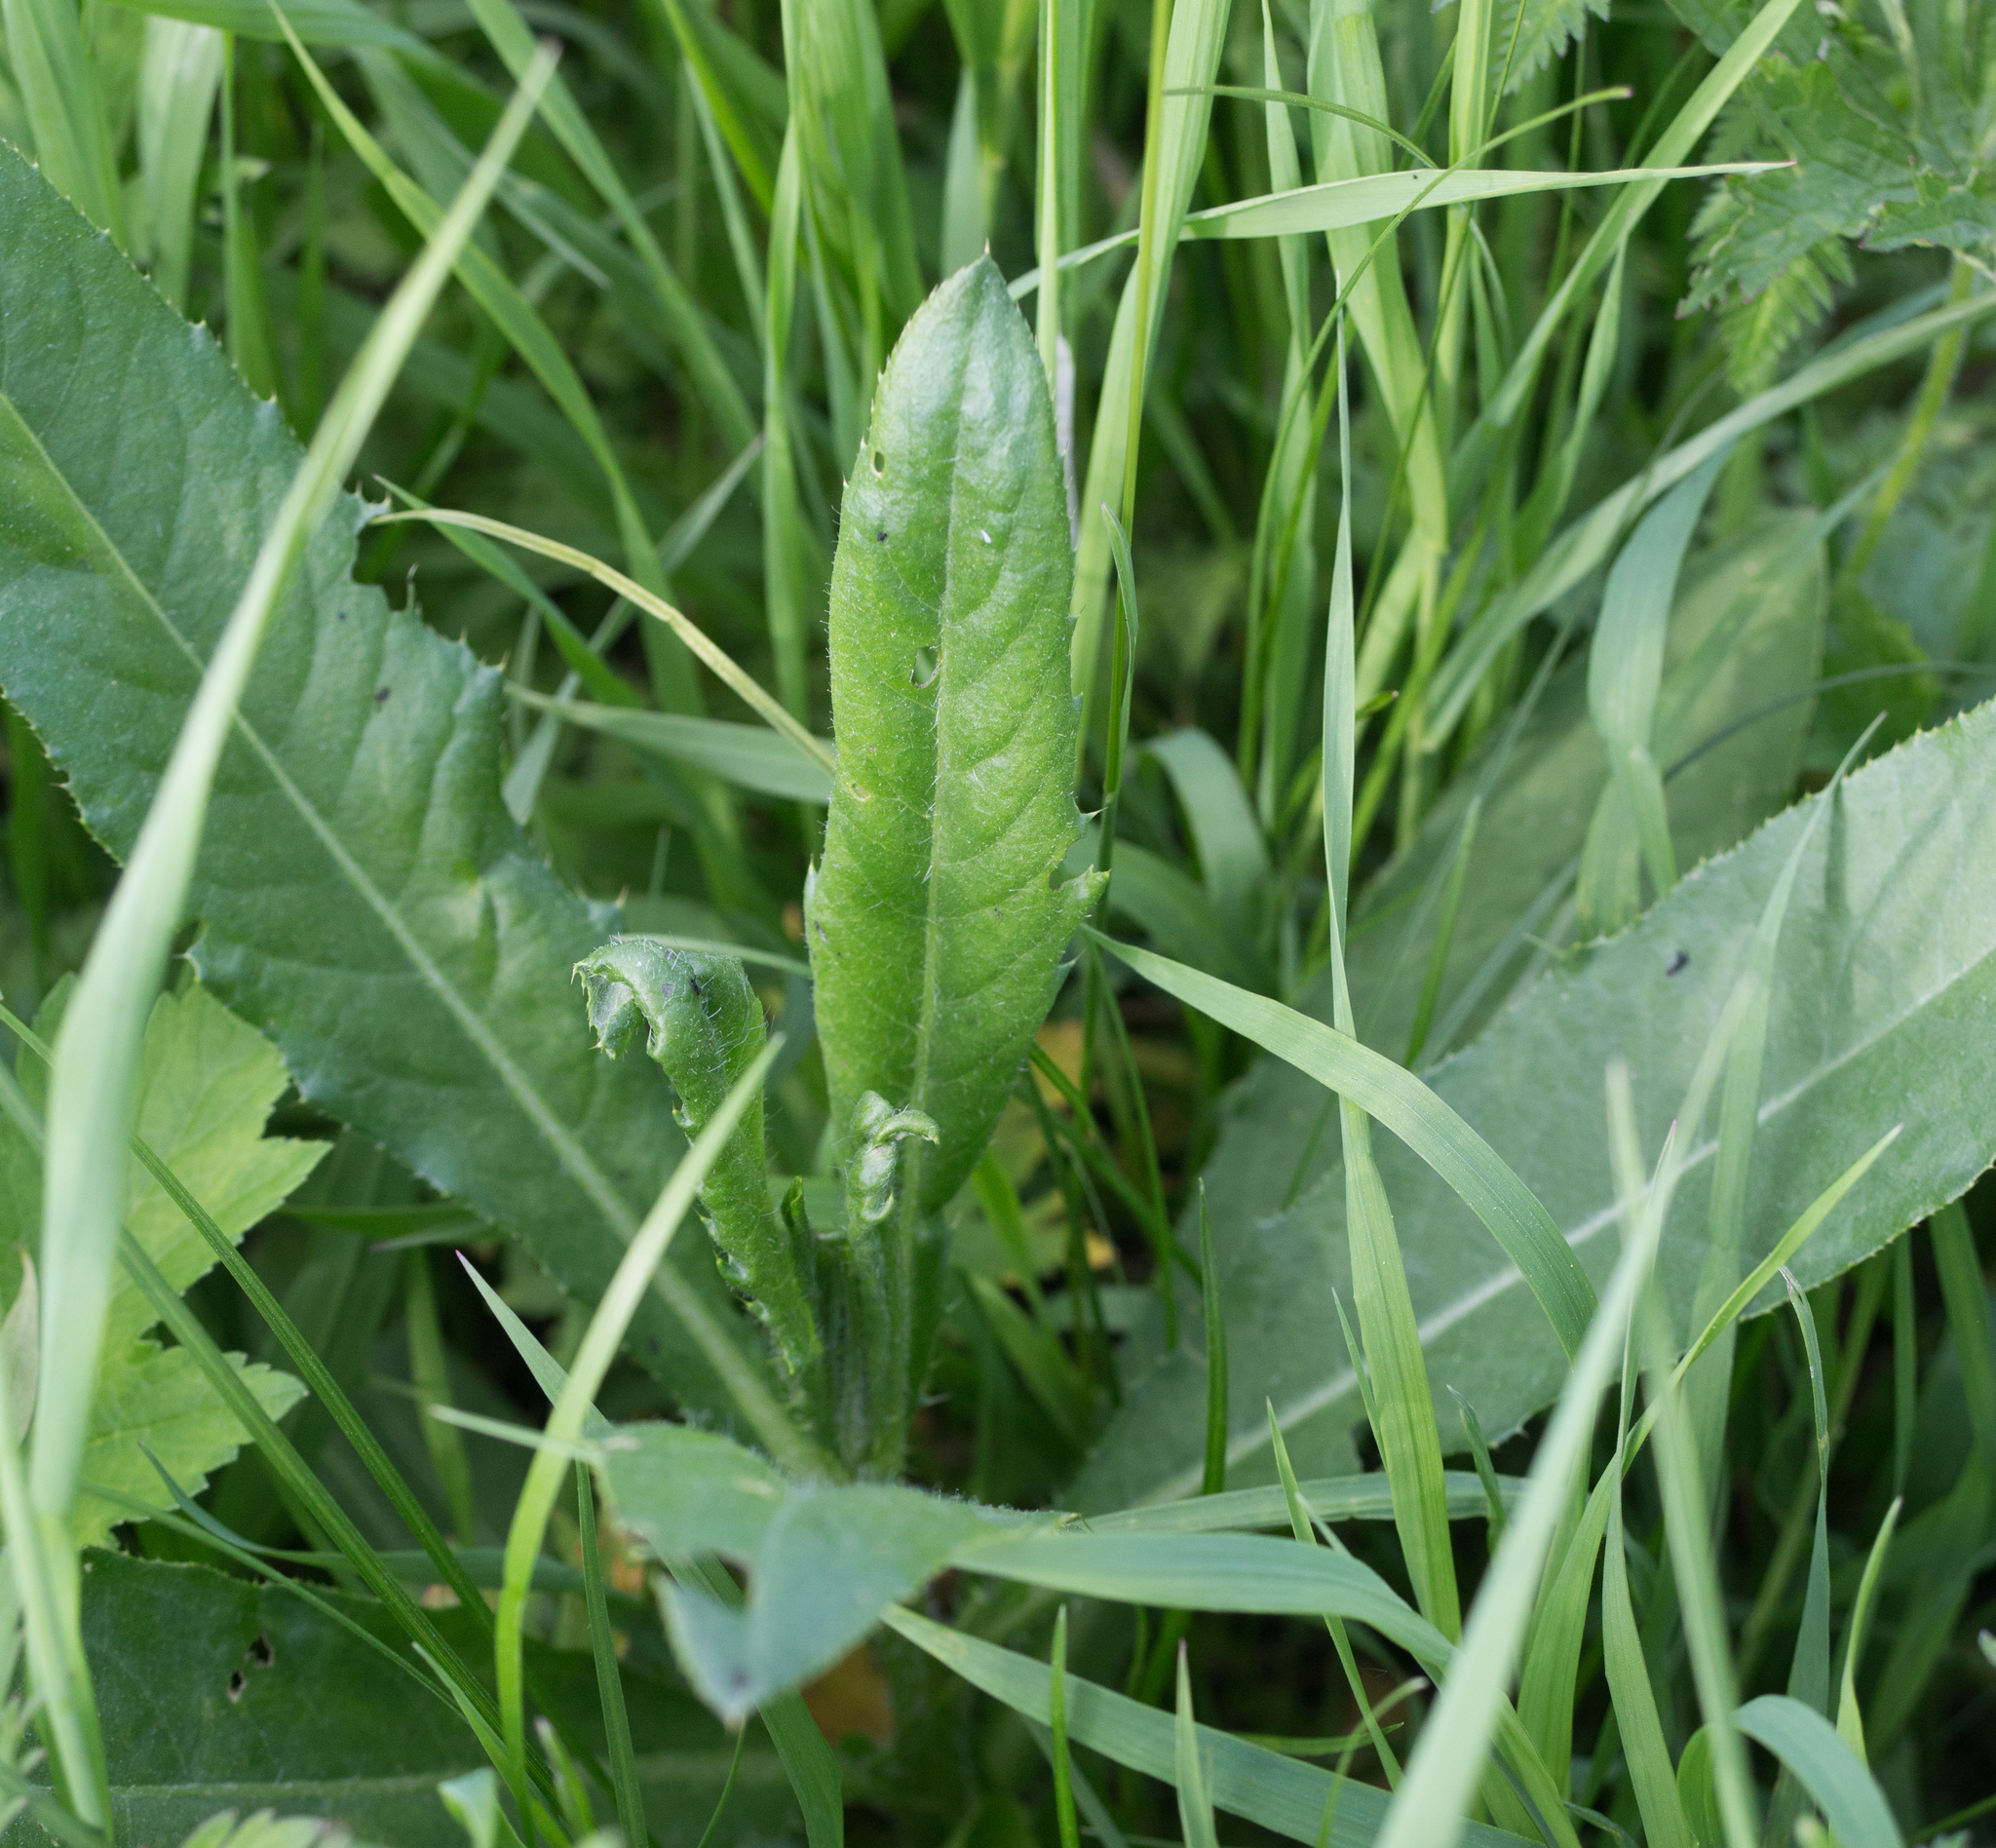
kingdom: Plantae
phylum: Tracheophyta
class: Magnoliopsida
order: Asterales
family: Asteraceae
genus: Cirsium
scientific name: Cirsium arvense
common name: Creeping thistle
